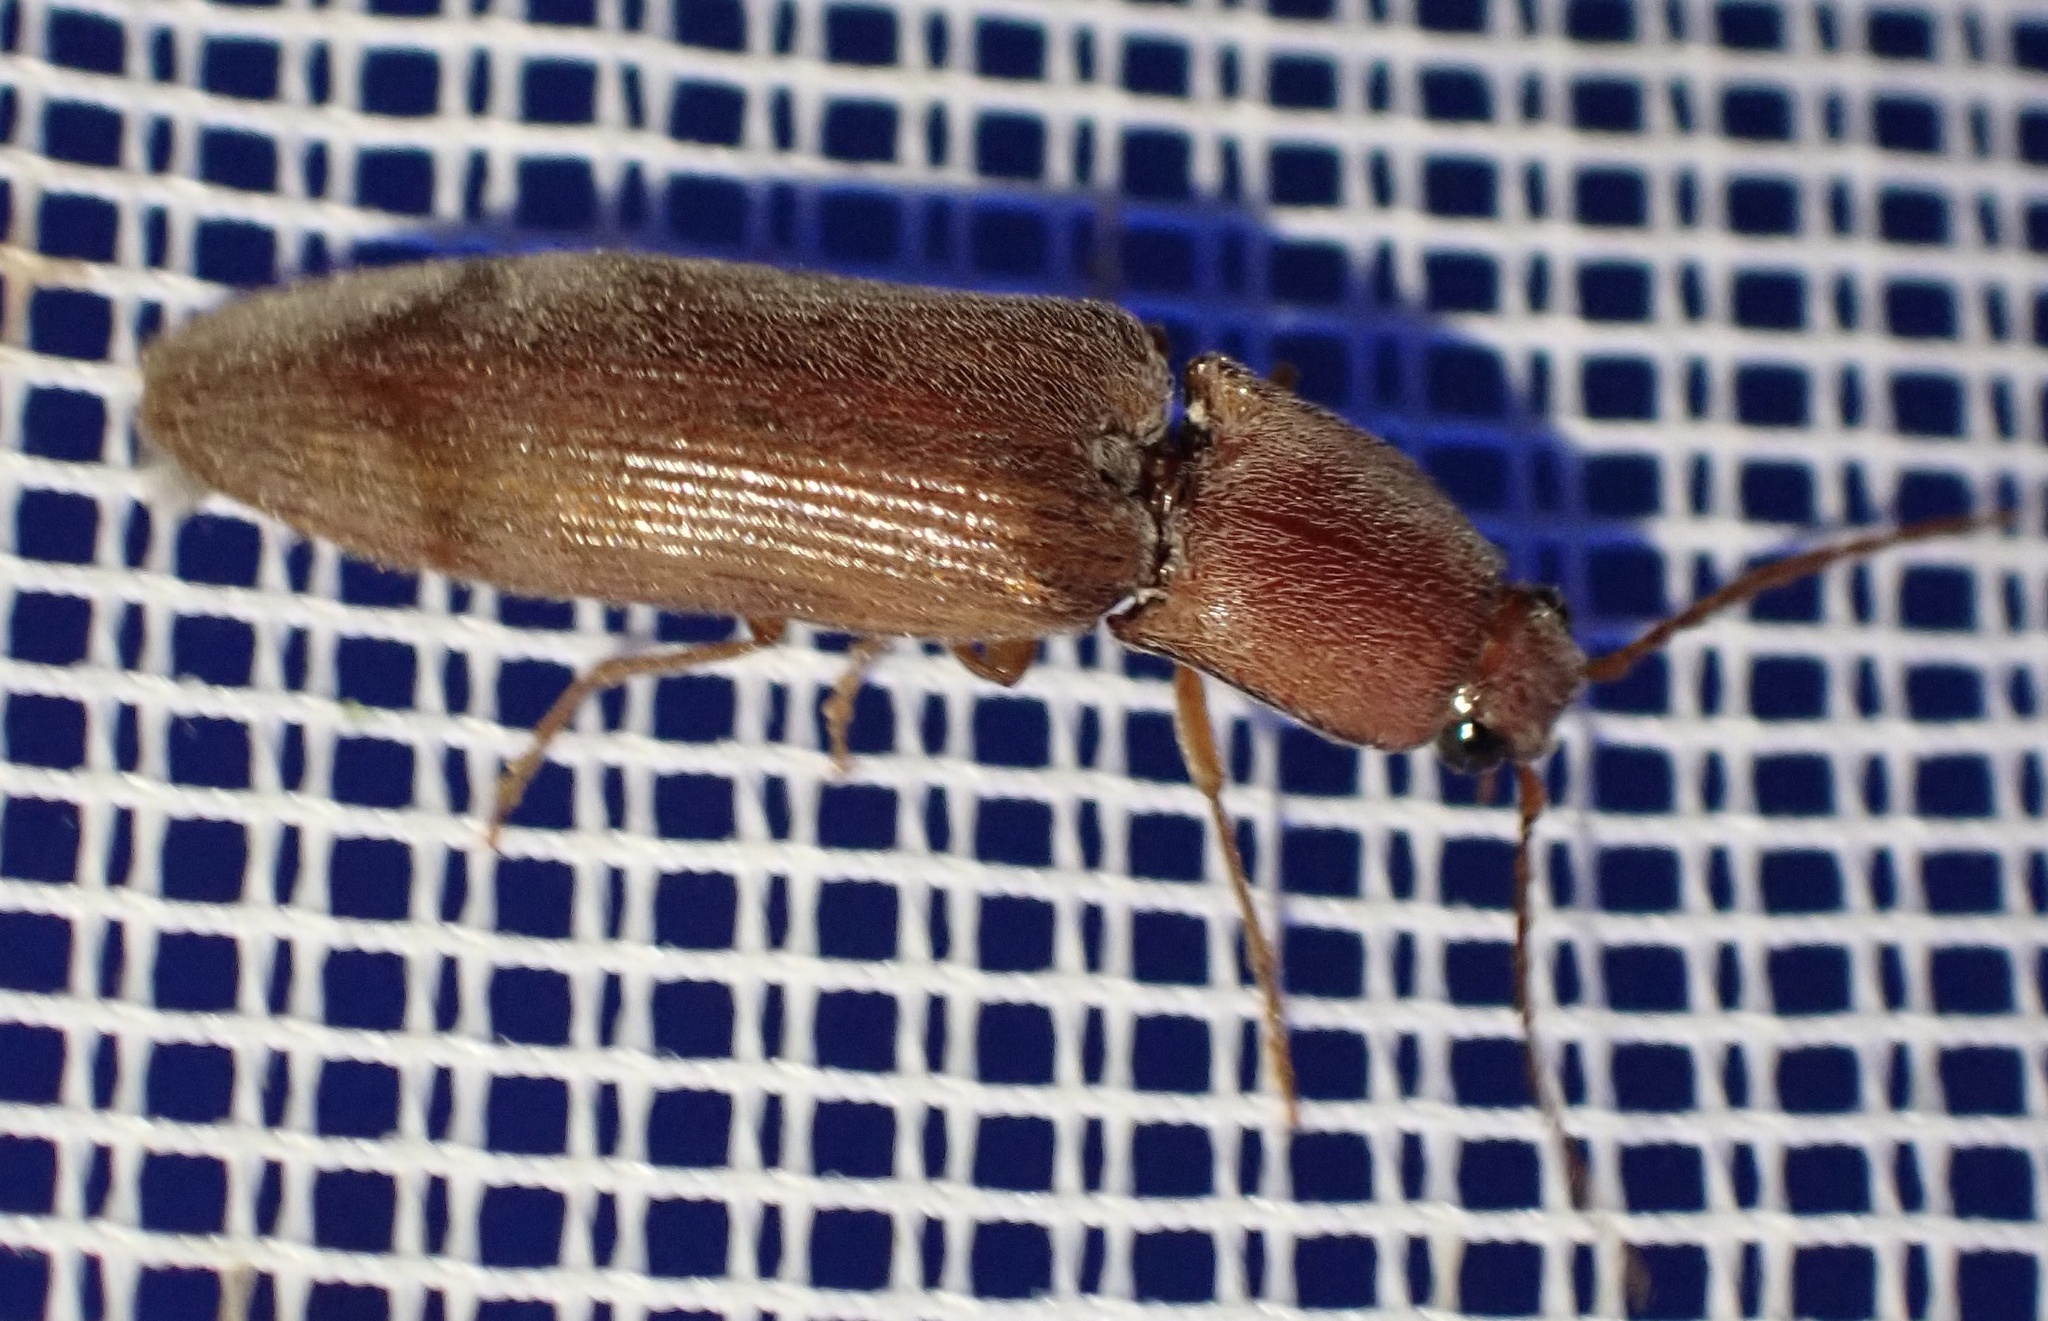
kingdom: Animalia
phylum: Arthropoda
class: Insecta
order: Coleoptera
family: Elateridae
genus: Stenagostus
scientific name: Stenagostus rhombeus
